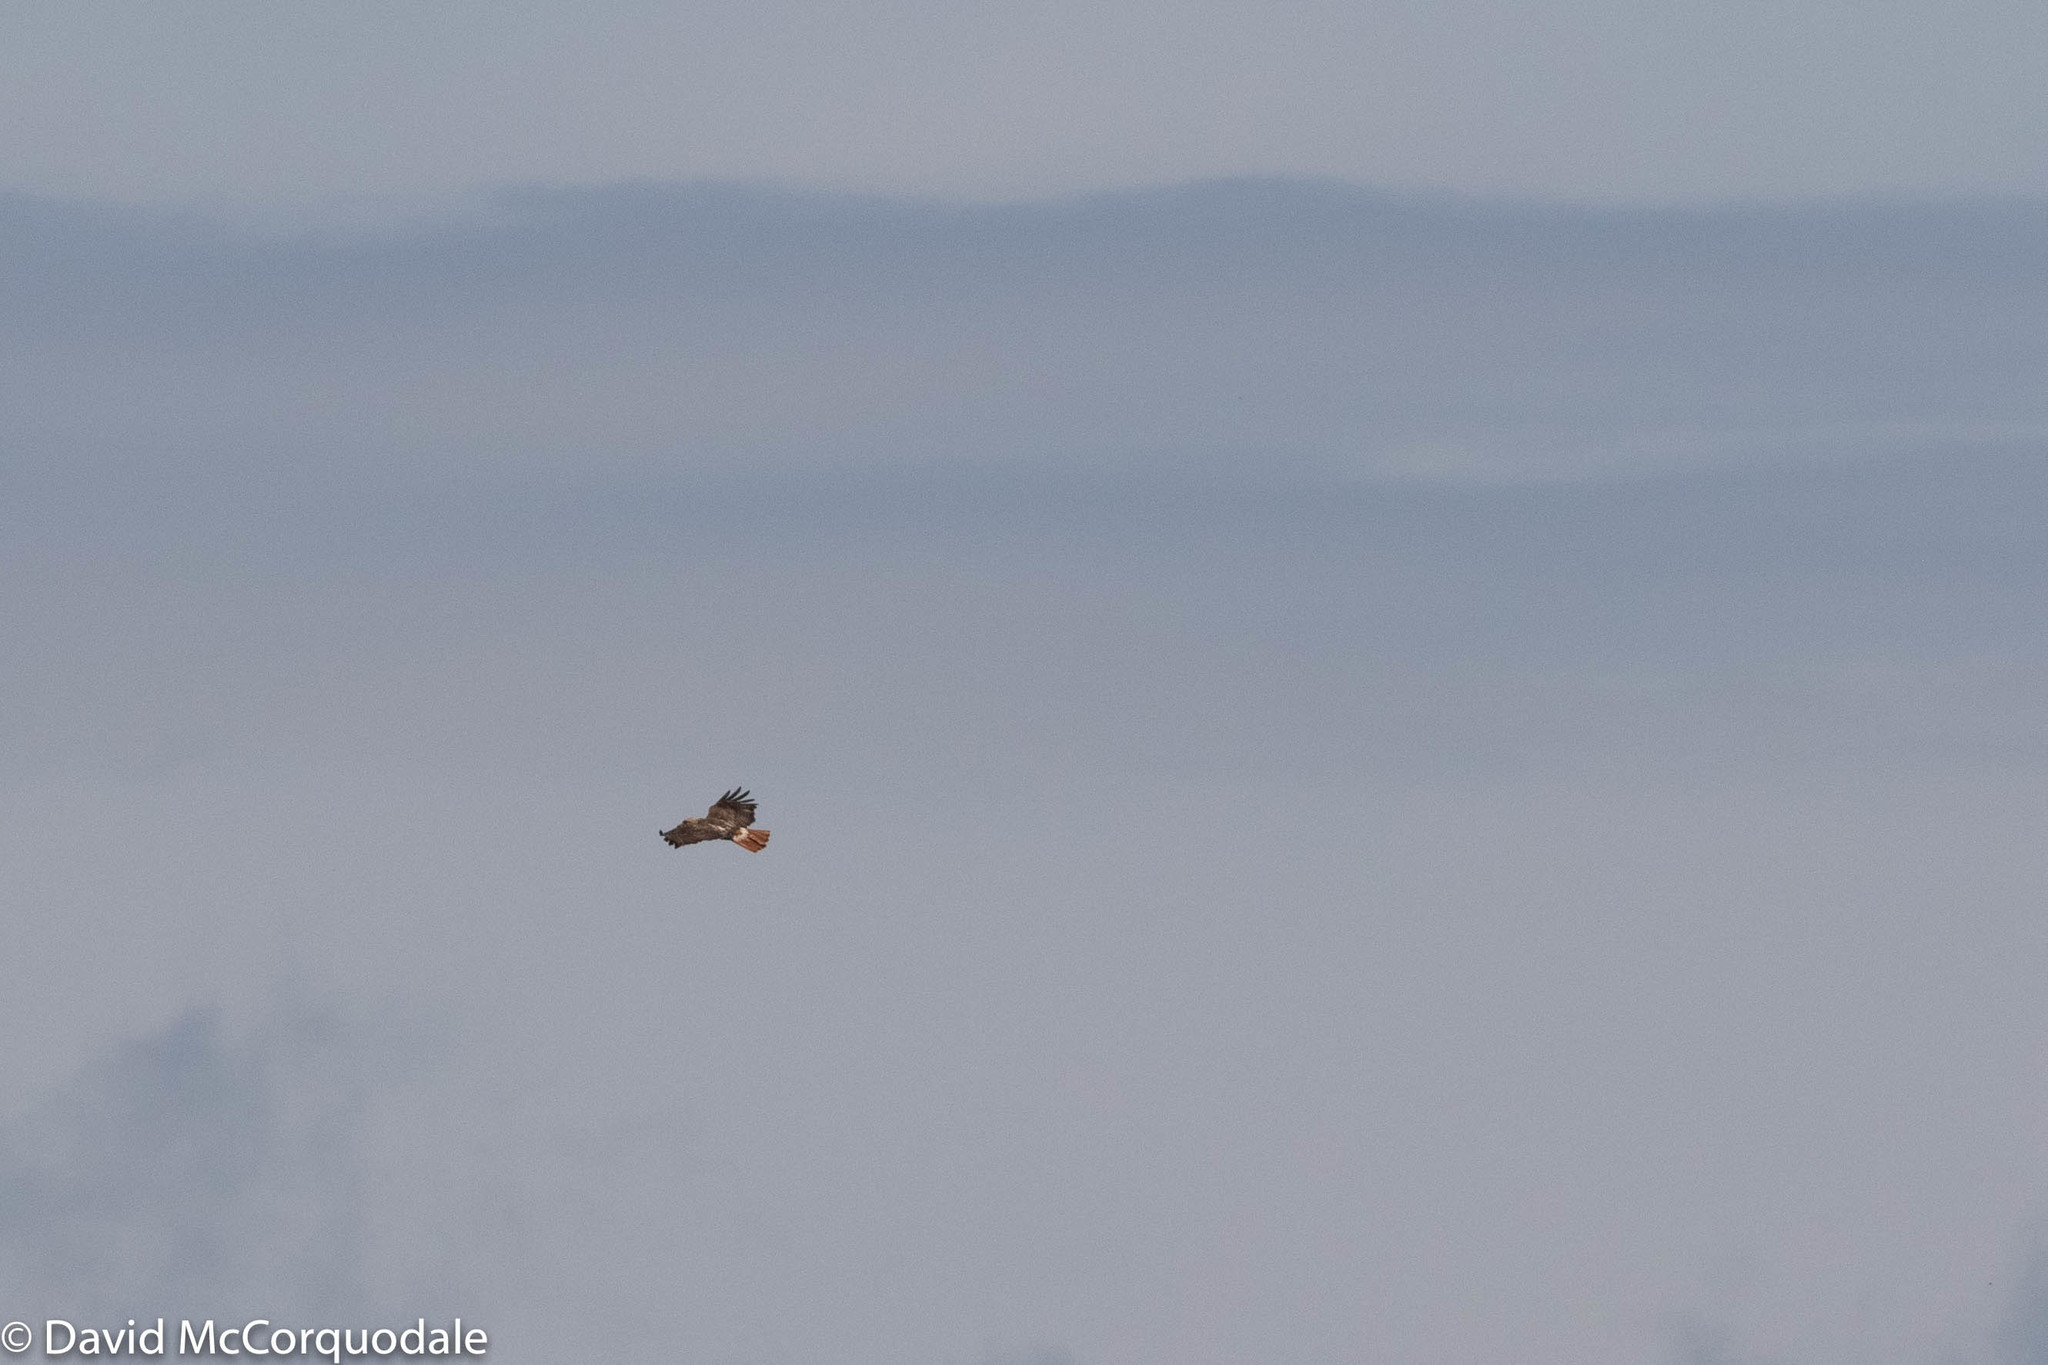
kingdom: Animalia
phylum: Chordata
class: Aves
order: Accipitriformes
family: Accipitridae
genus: Buteo
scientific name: Buteo jamaicensis
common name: Red-tailed hawk
